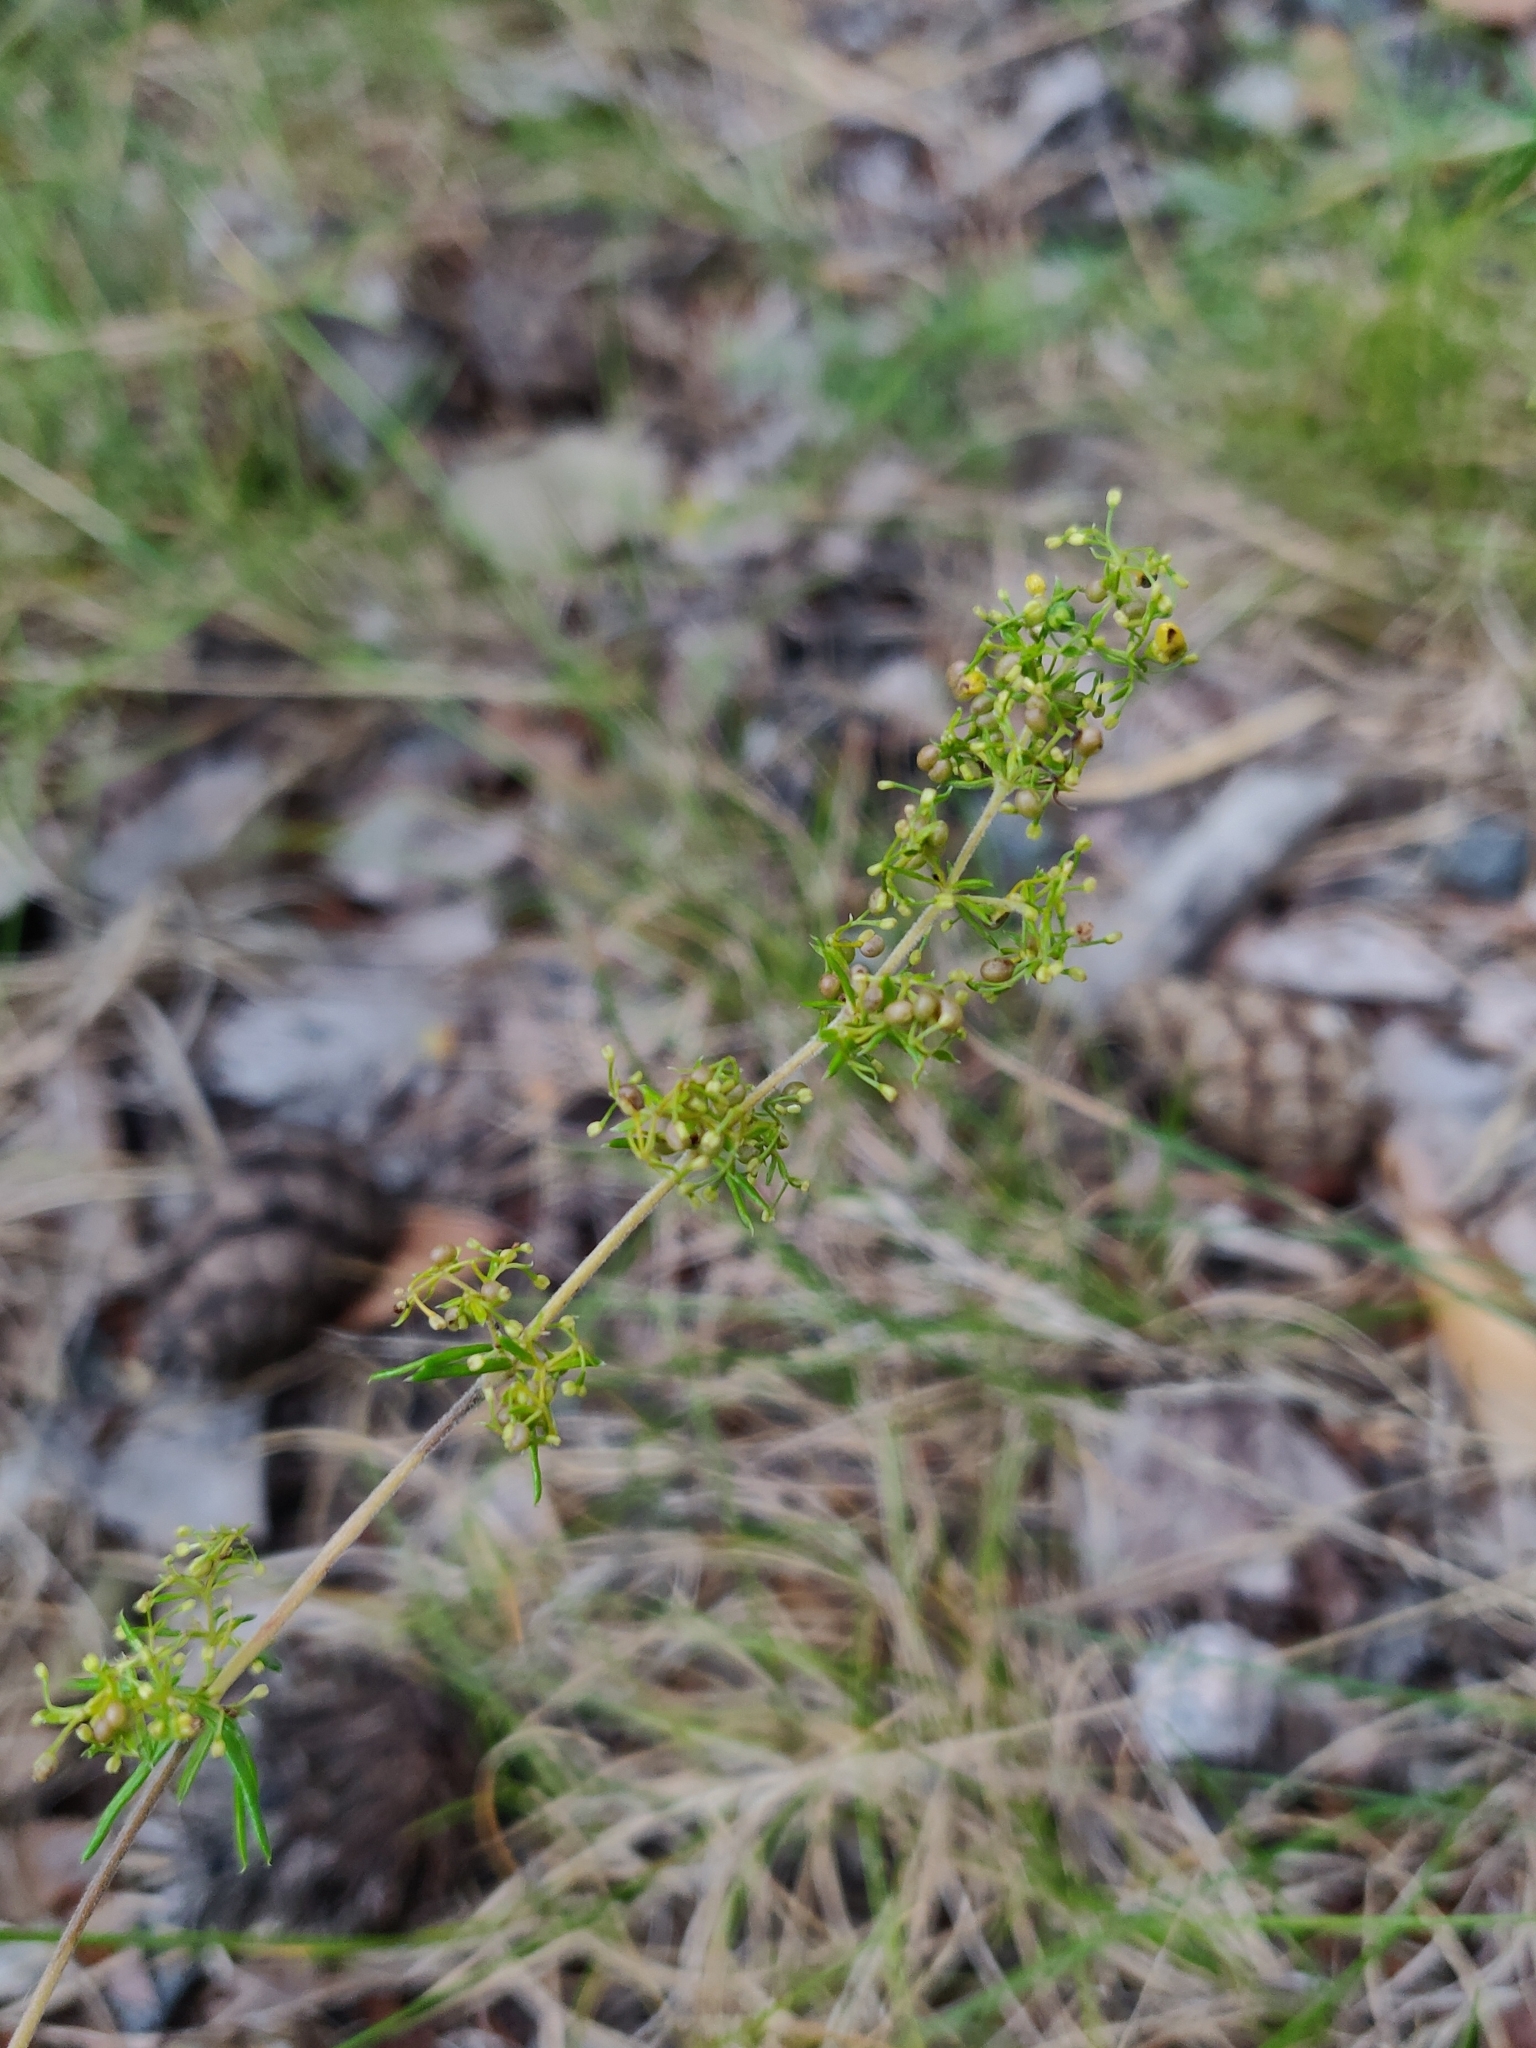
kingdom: Plantae
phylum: Tracheophyta
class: Magnoliopsida
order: Gentianales
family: Rubiaceae
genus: Galium
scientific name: Galium verum
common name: Lady's bedstraw
